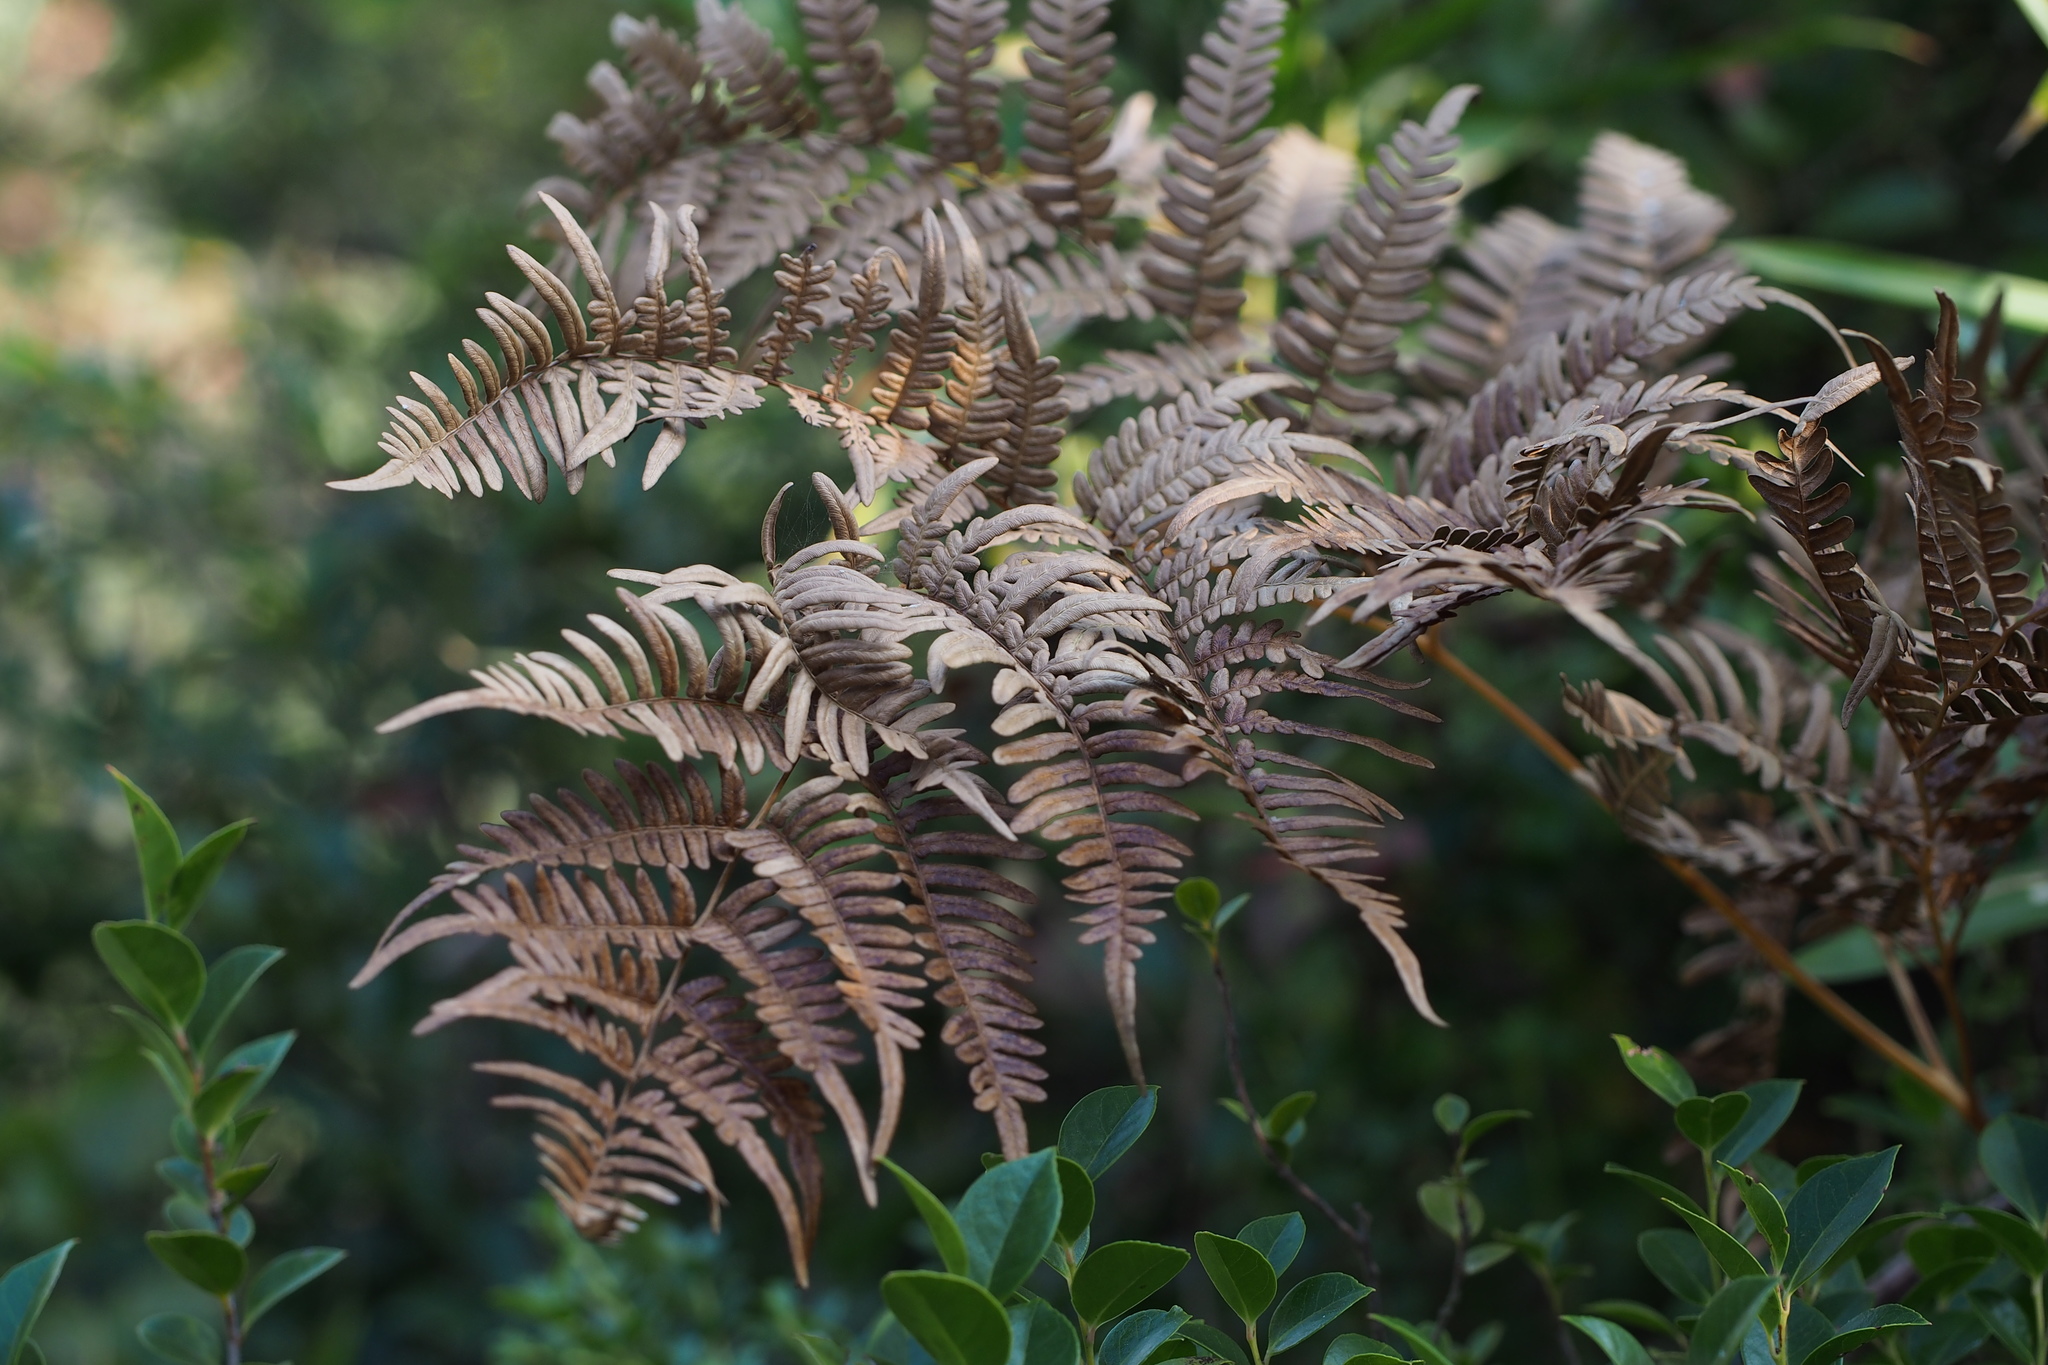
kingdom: Plantae
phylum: Tracheophyta
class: Polypodiopsida
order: Polypodiales
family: Dennstaedtiaceae
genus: Pteridium
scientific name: Pteridium aquilinum
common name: Bracken
